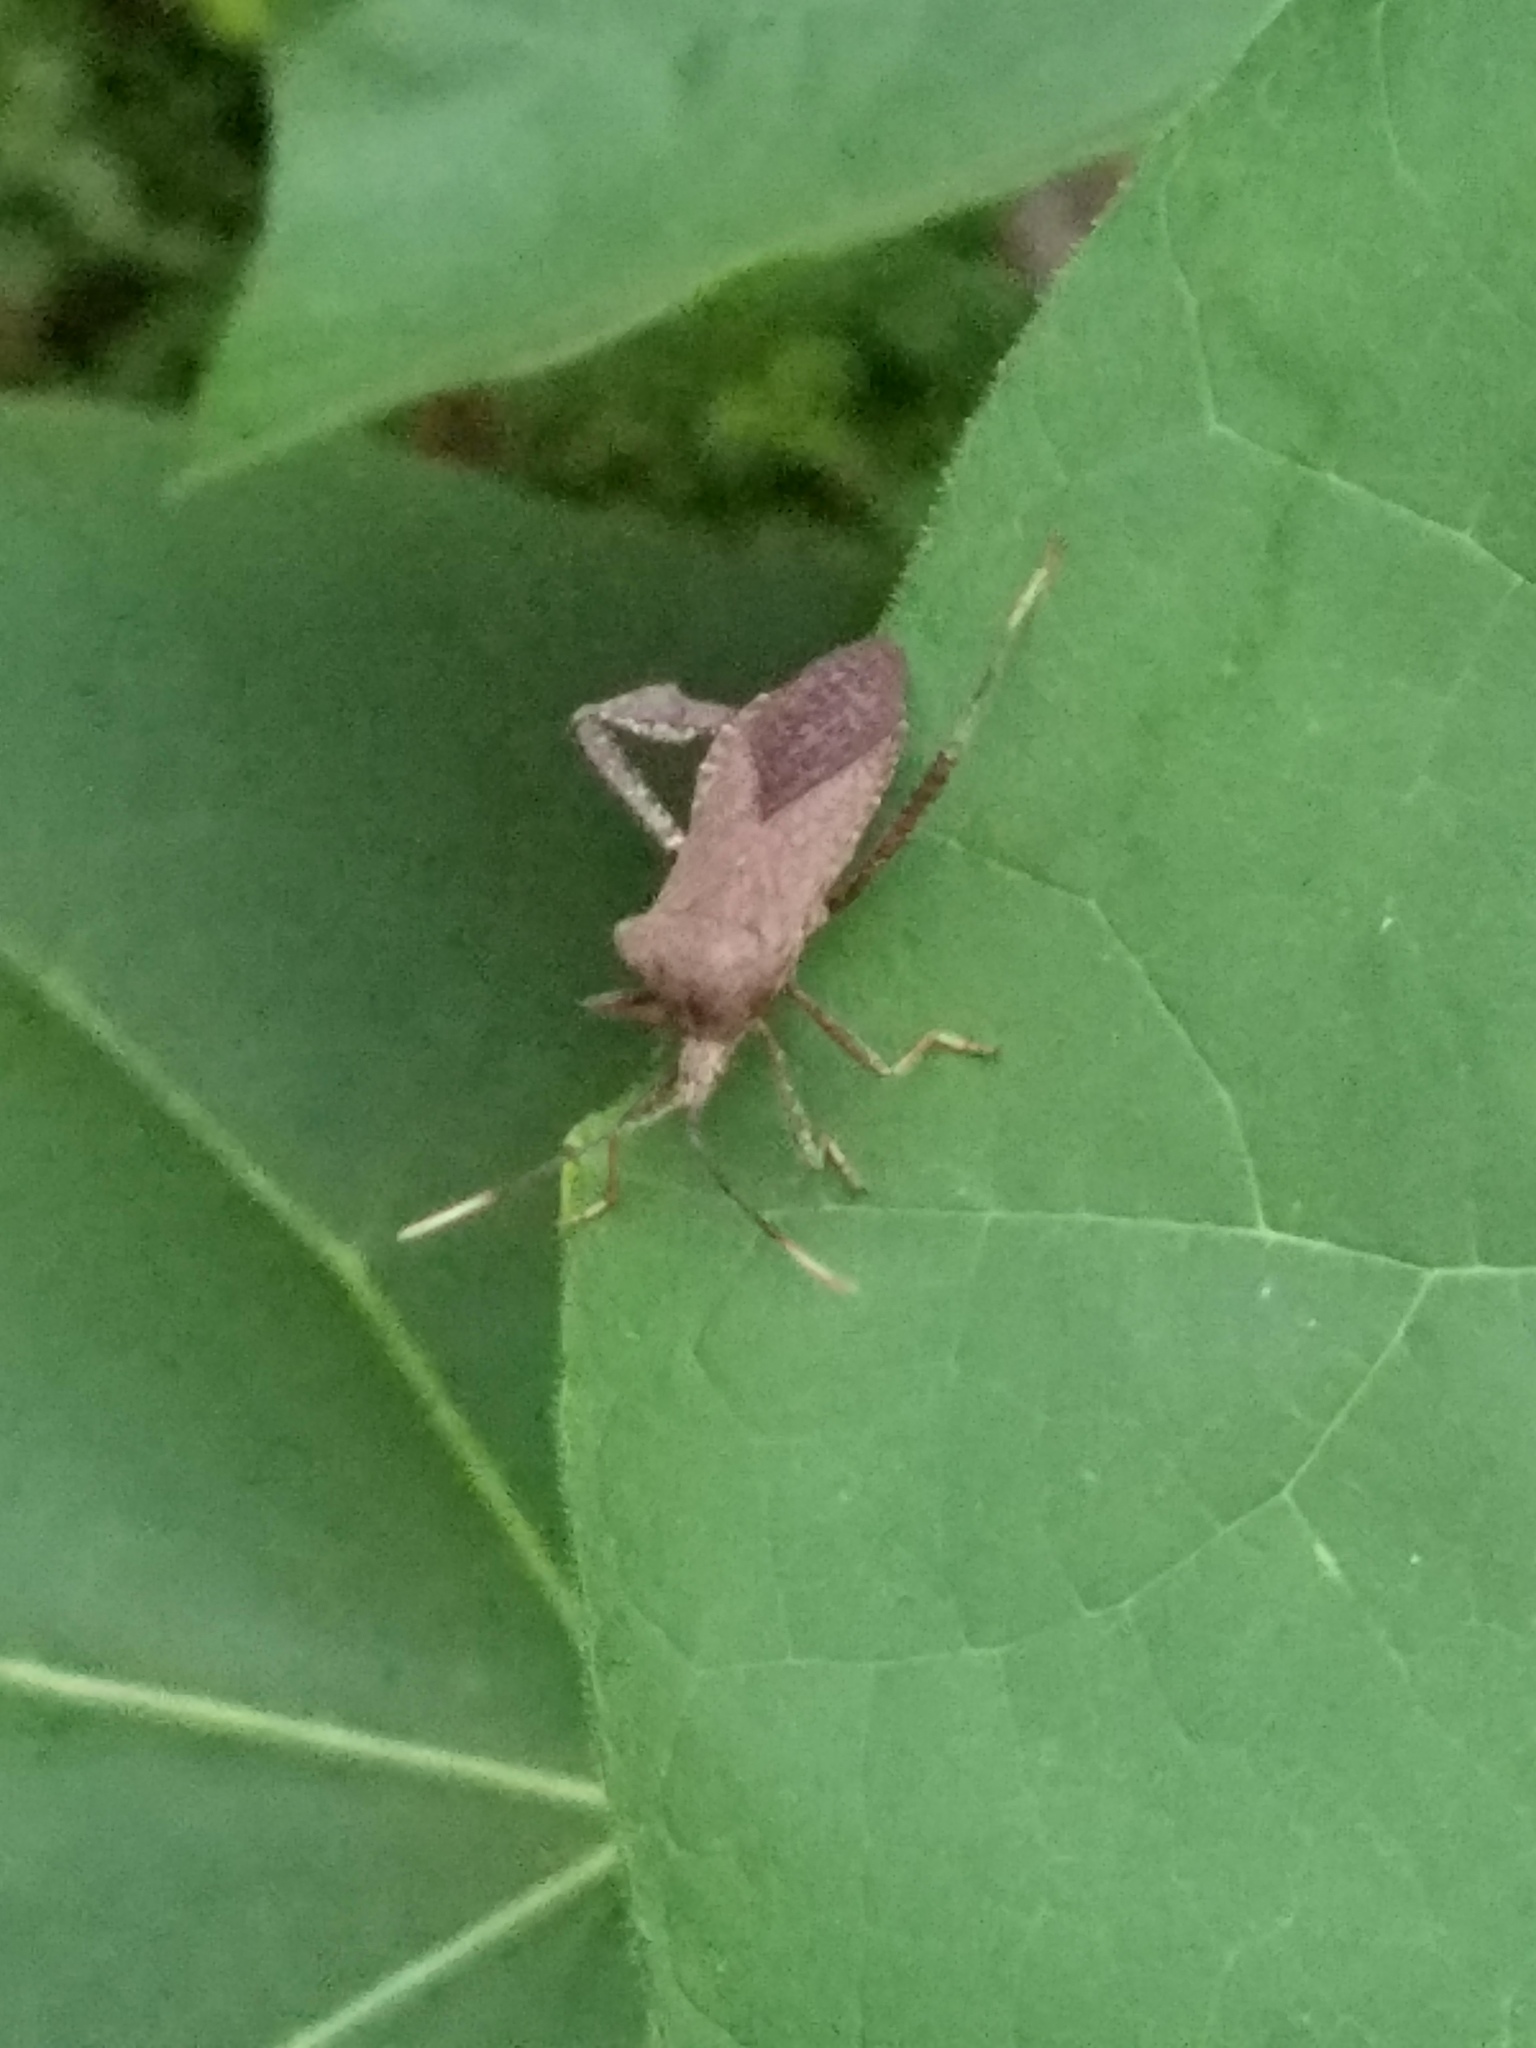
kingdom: Animalia
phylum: Arthropoda
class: Insecta
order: Hemiptera
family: Coreidae
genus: Acanthocephala
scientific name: Acanthocephala terminalis
